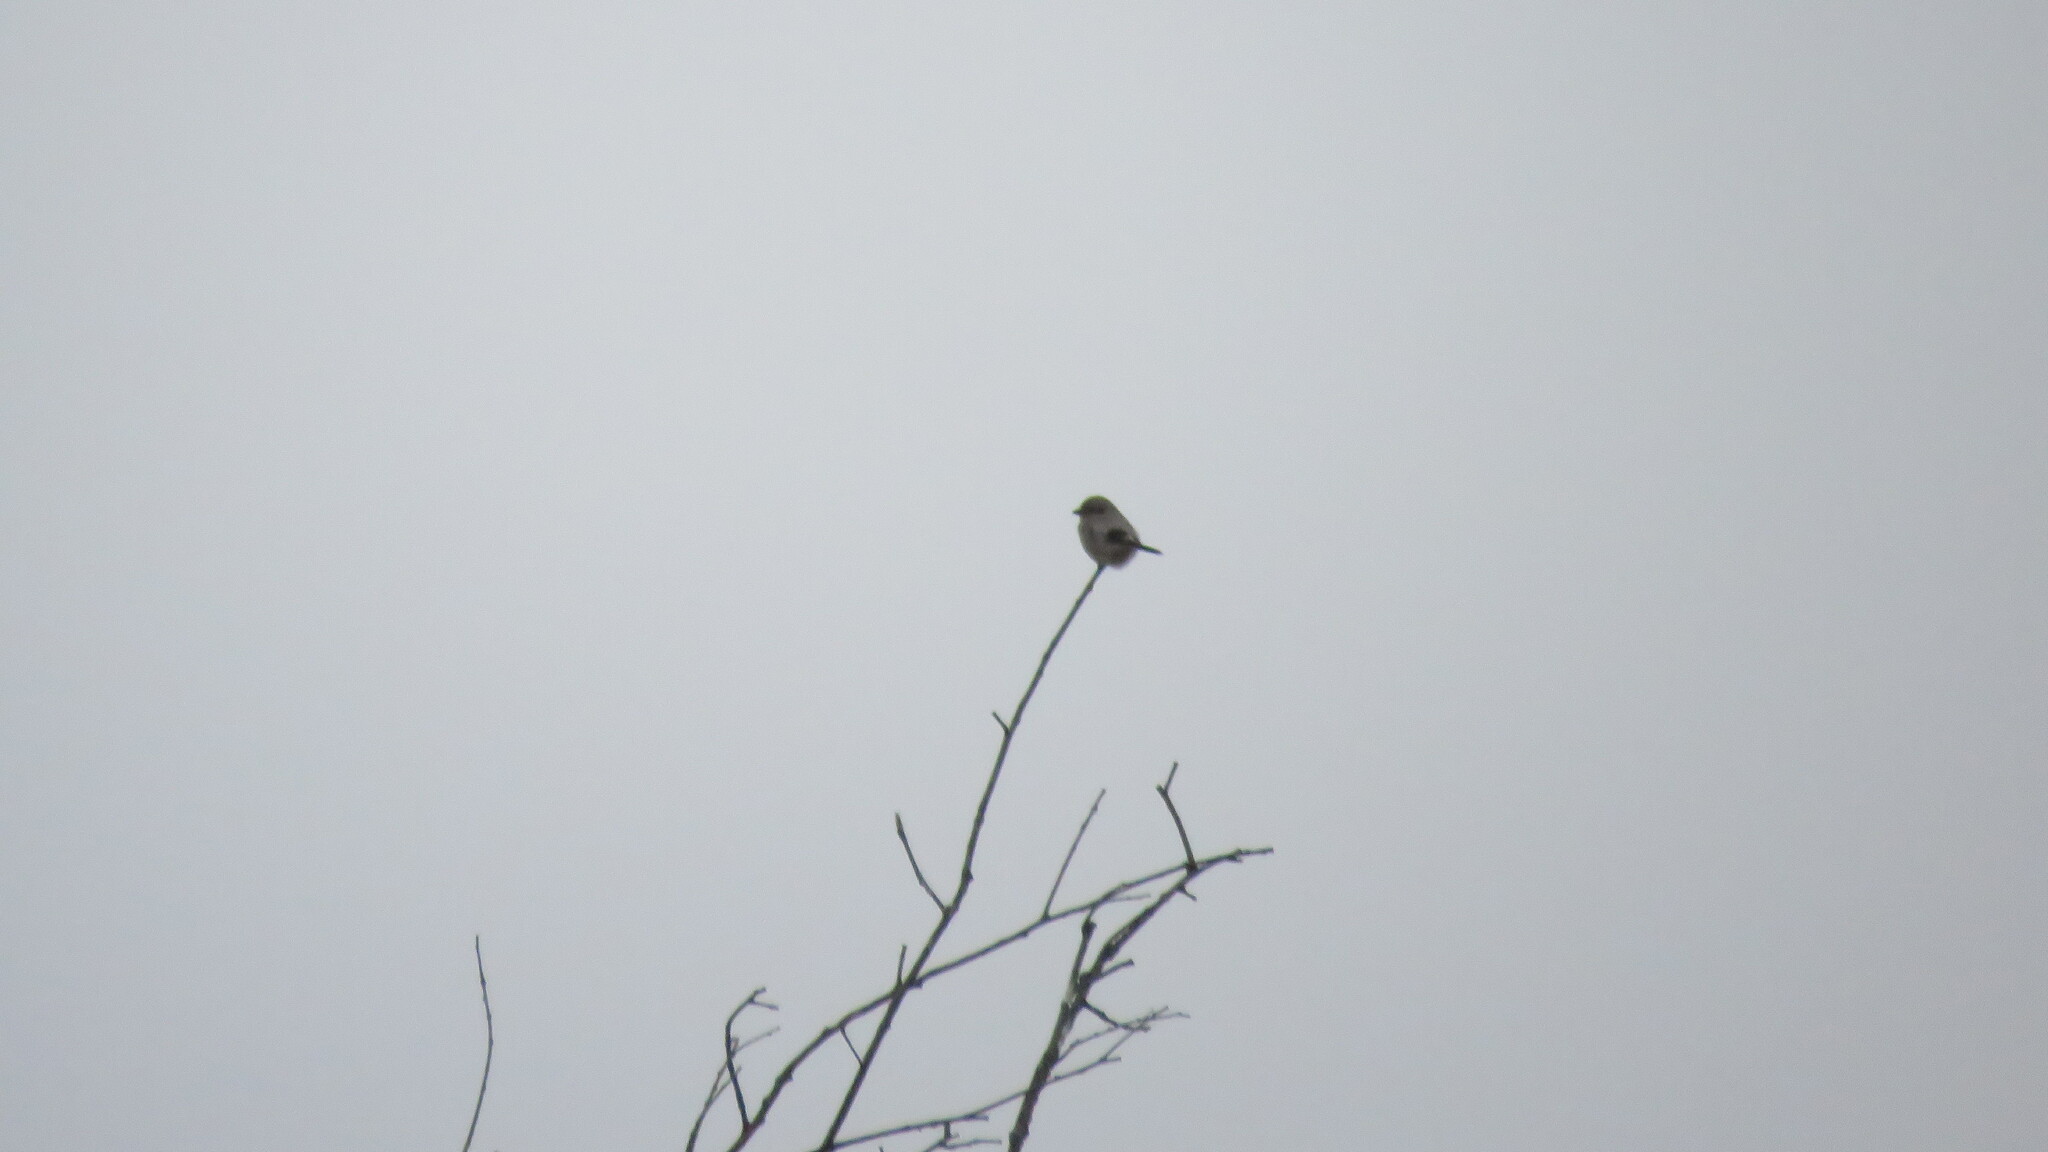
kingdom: Animalia
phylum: Chordata
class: Aves
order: Passeriformes
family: Laniidae
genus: Lanius
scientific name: Lanius borealis
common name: Northern shrike
